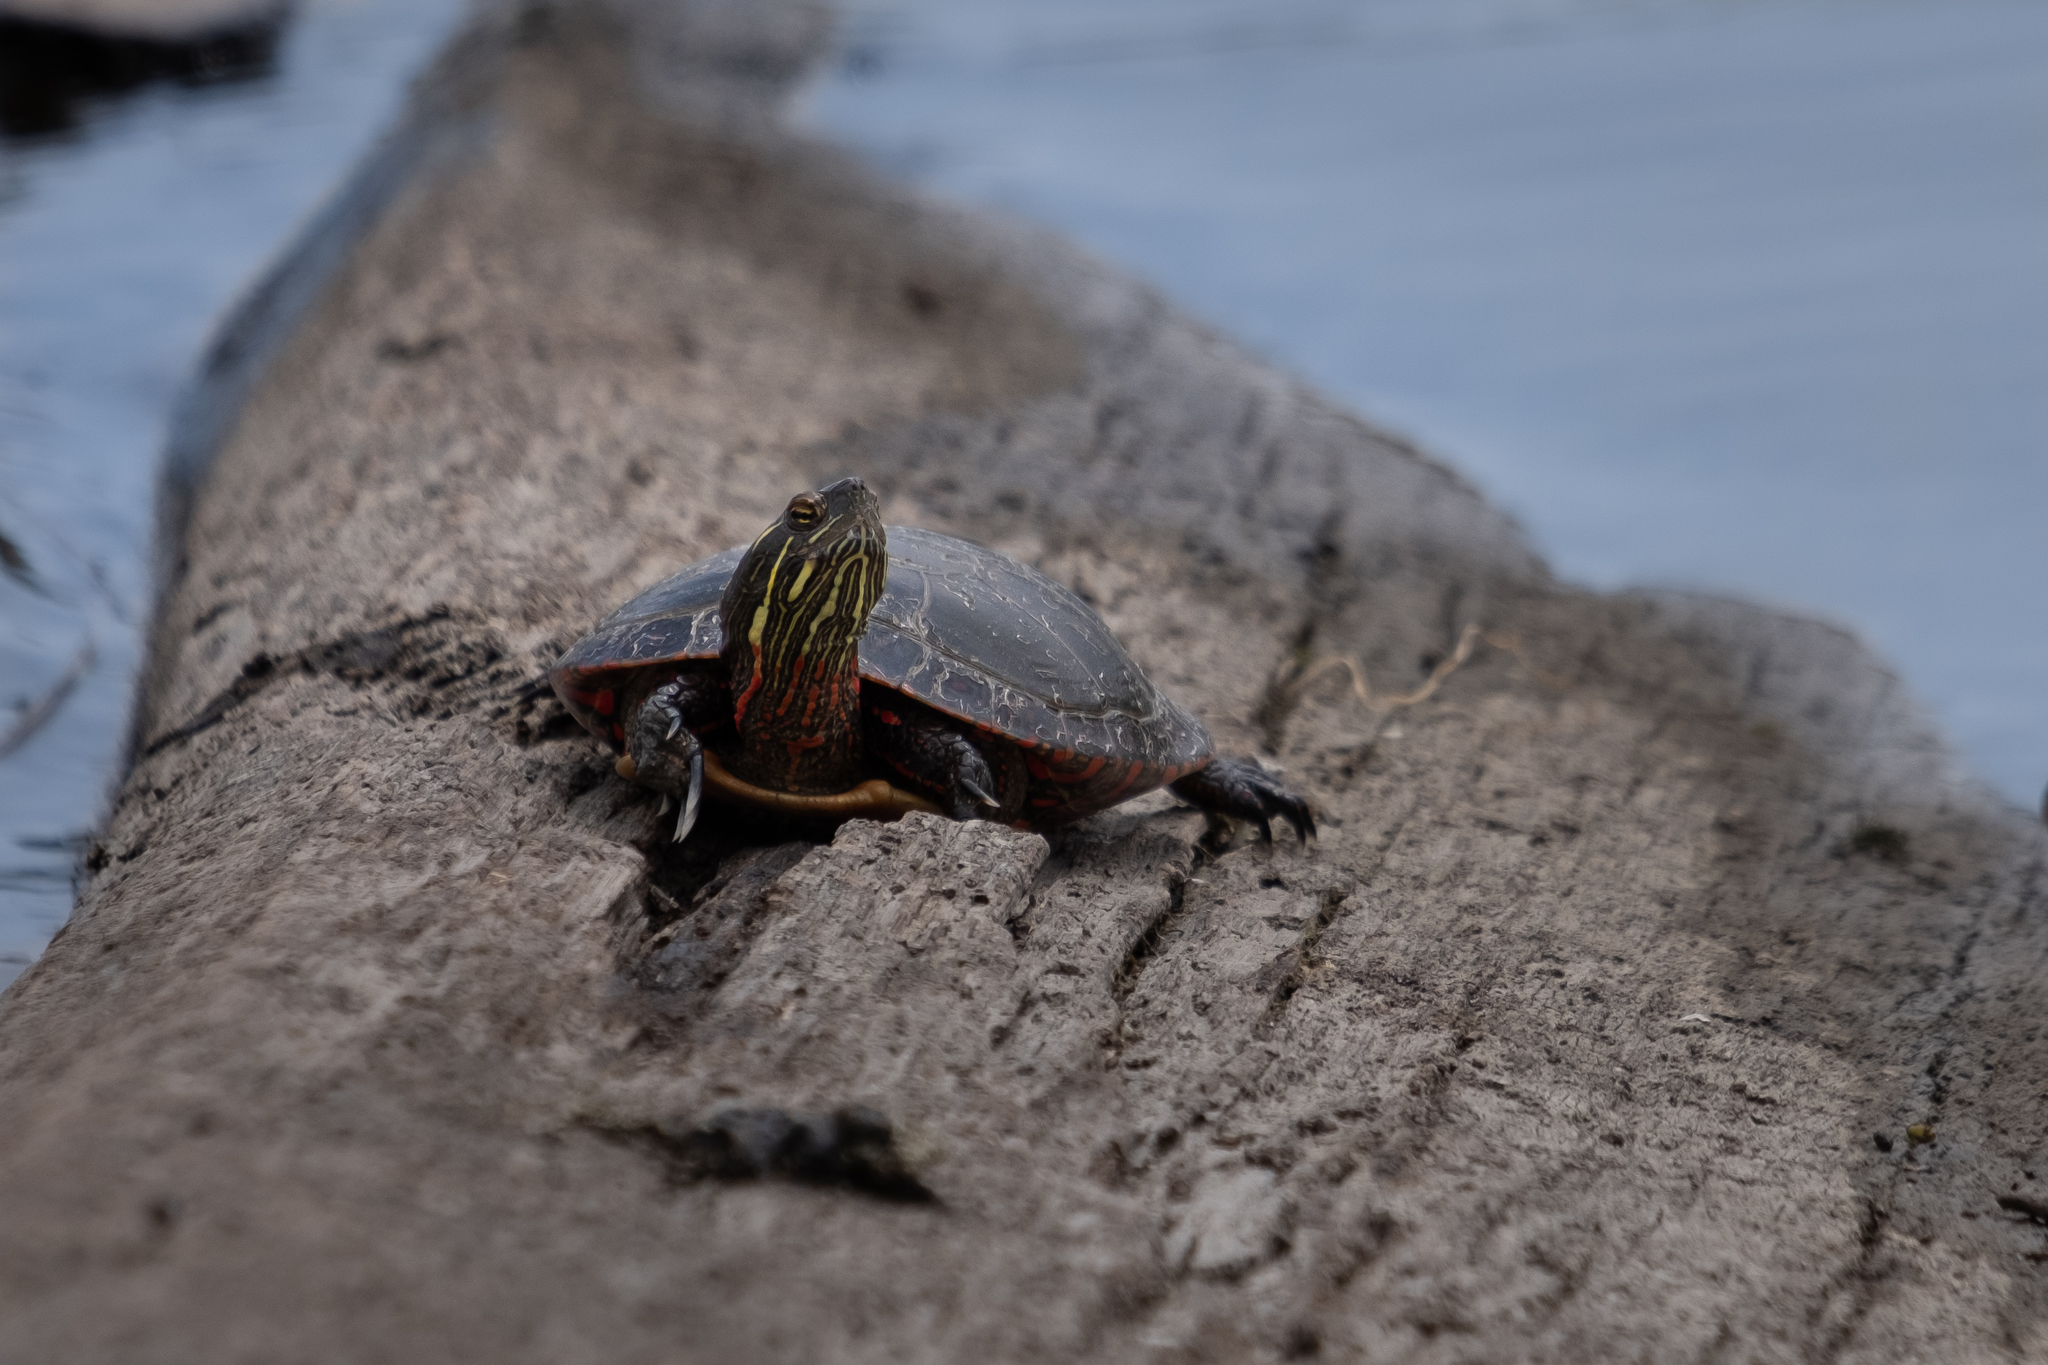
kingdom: Animalia
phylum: Chordata
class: Testudines
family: Emydidae
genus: Chrysemys
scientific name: Chrysemys picta
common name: Painted turtle
